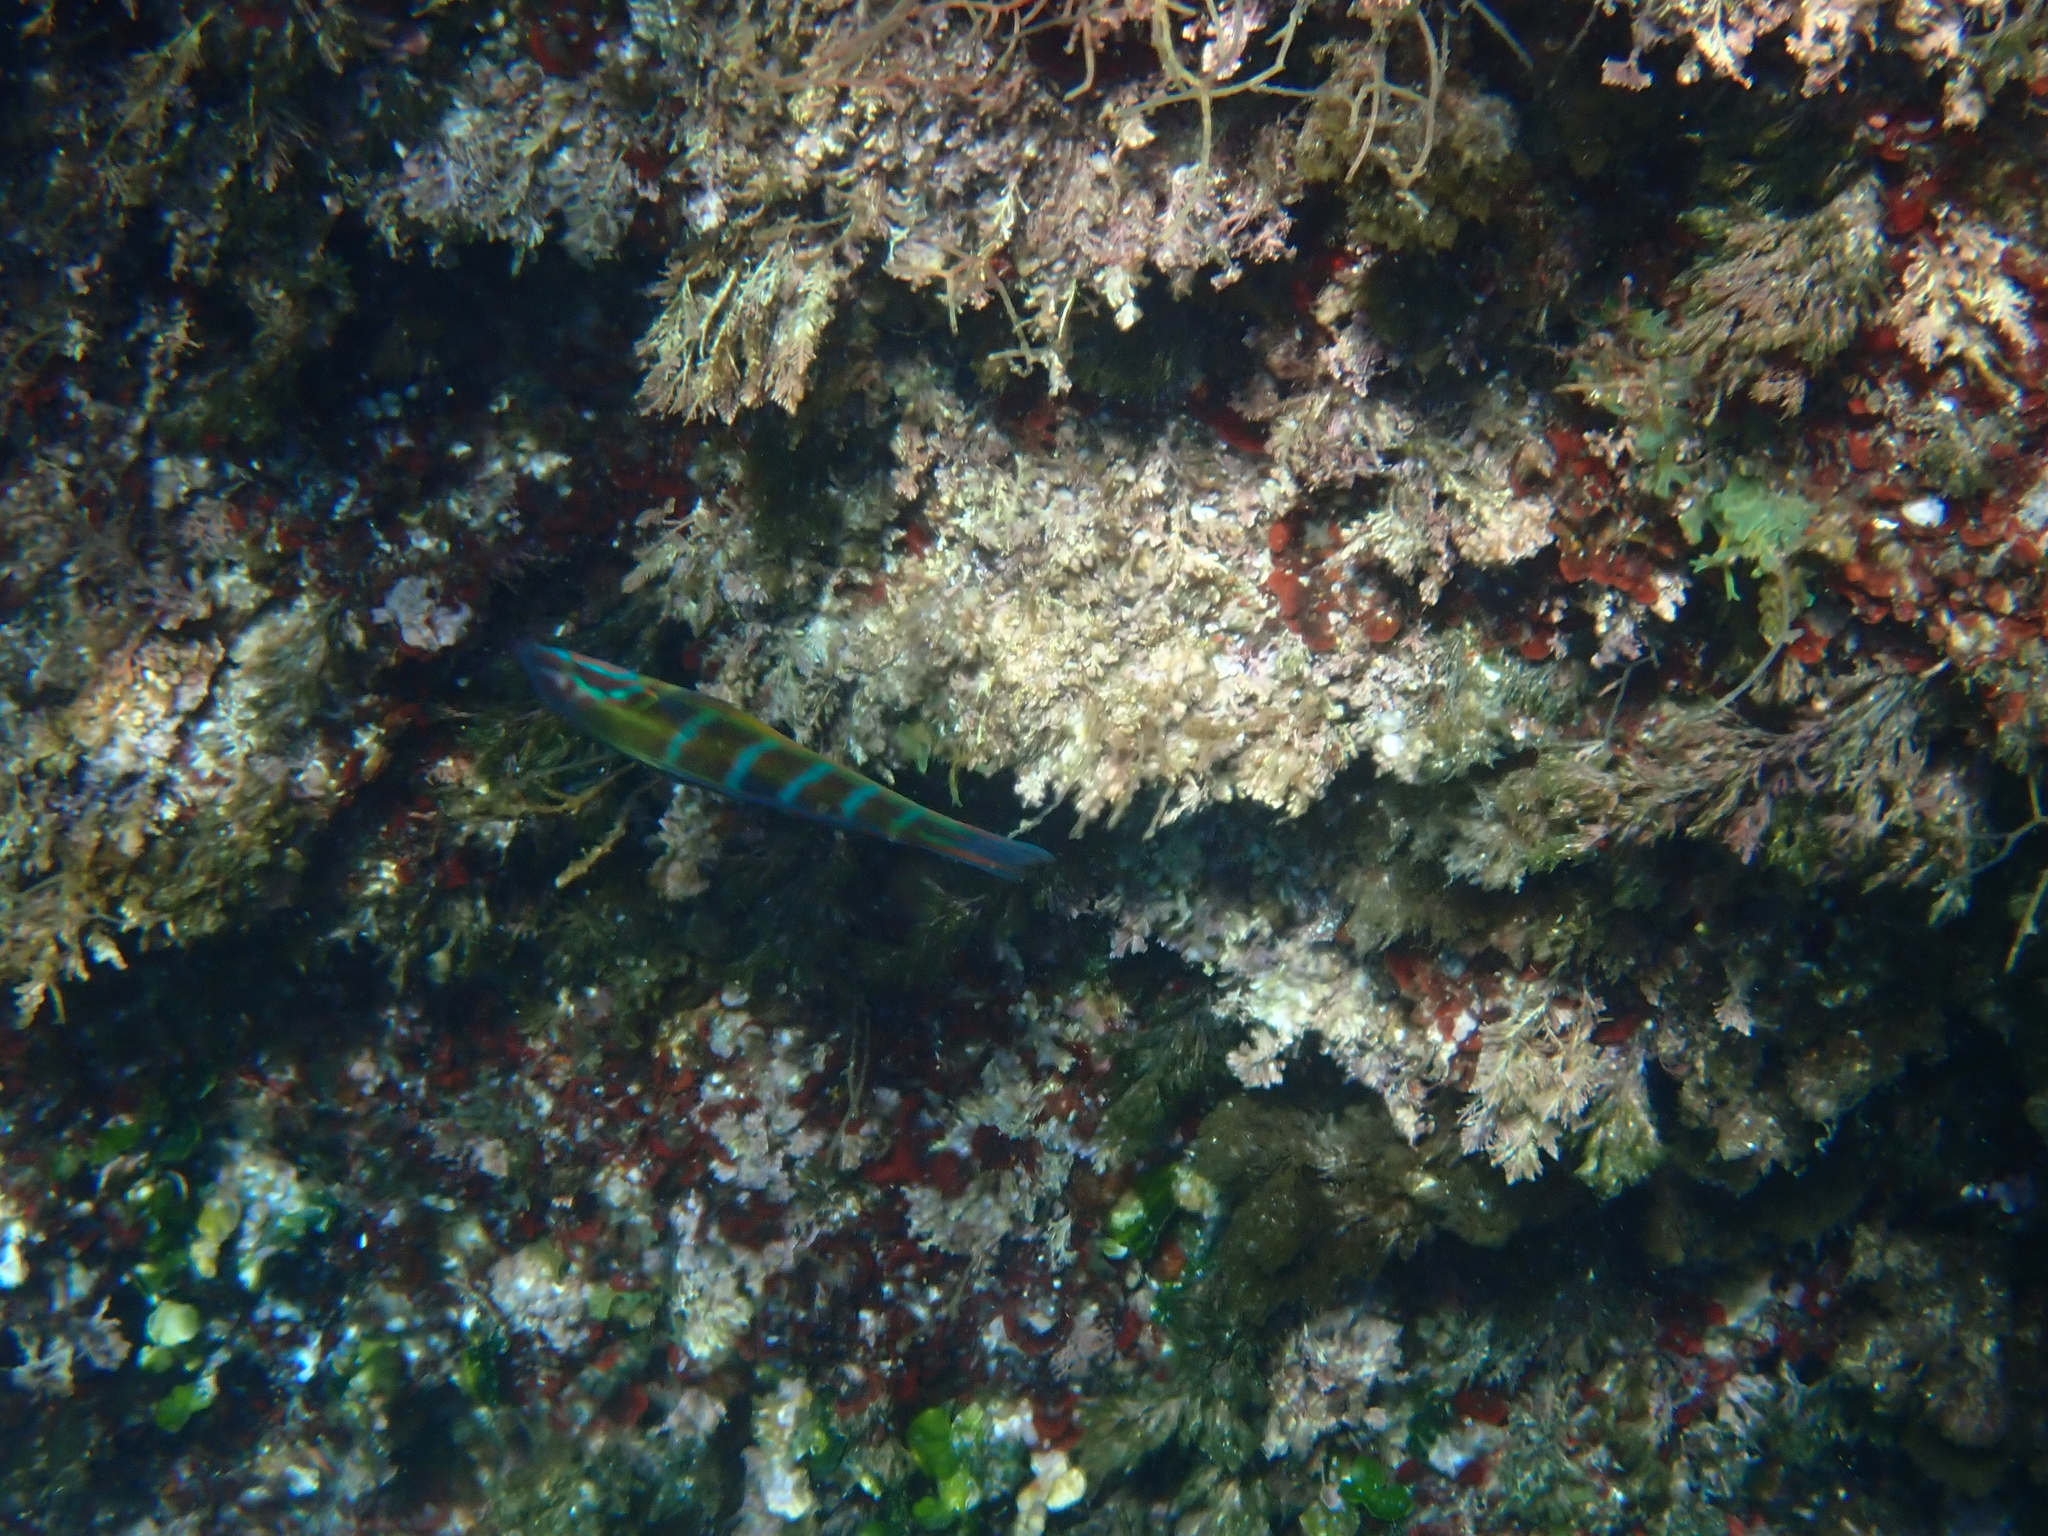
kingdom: Animalia
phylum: Chordata
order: Perciformes
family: Labridae
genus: Thalassoma
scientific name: Thalassoma pavo
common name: Ornate wrasse
